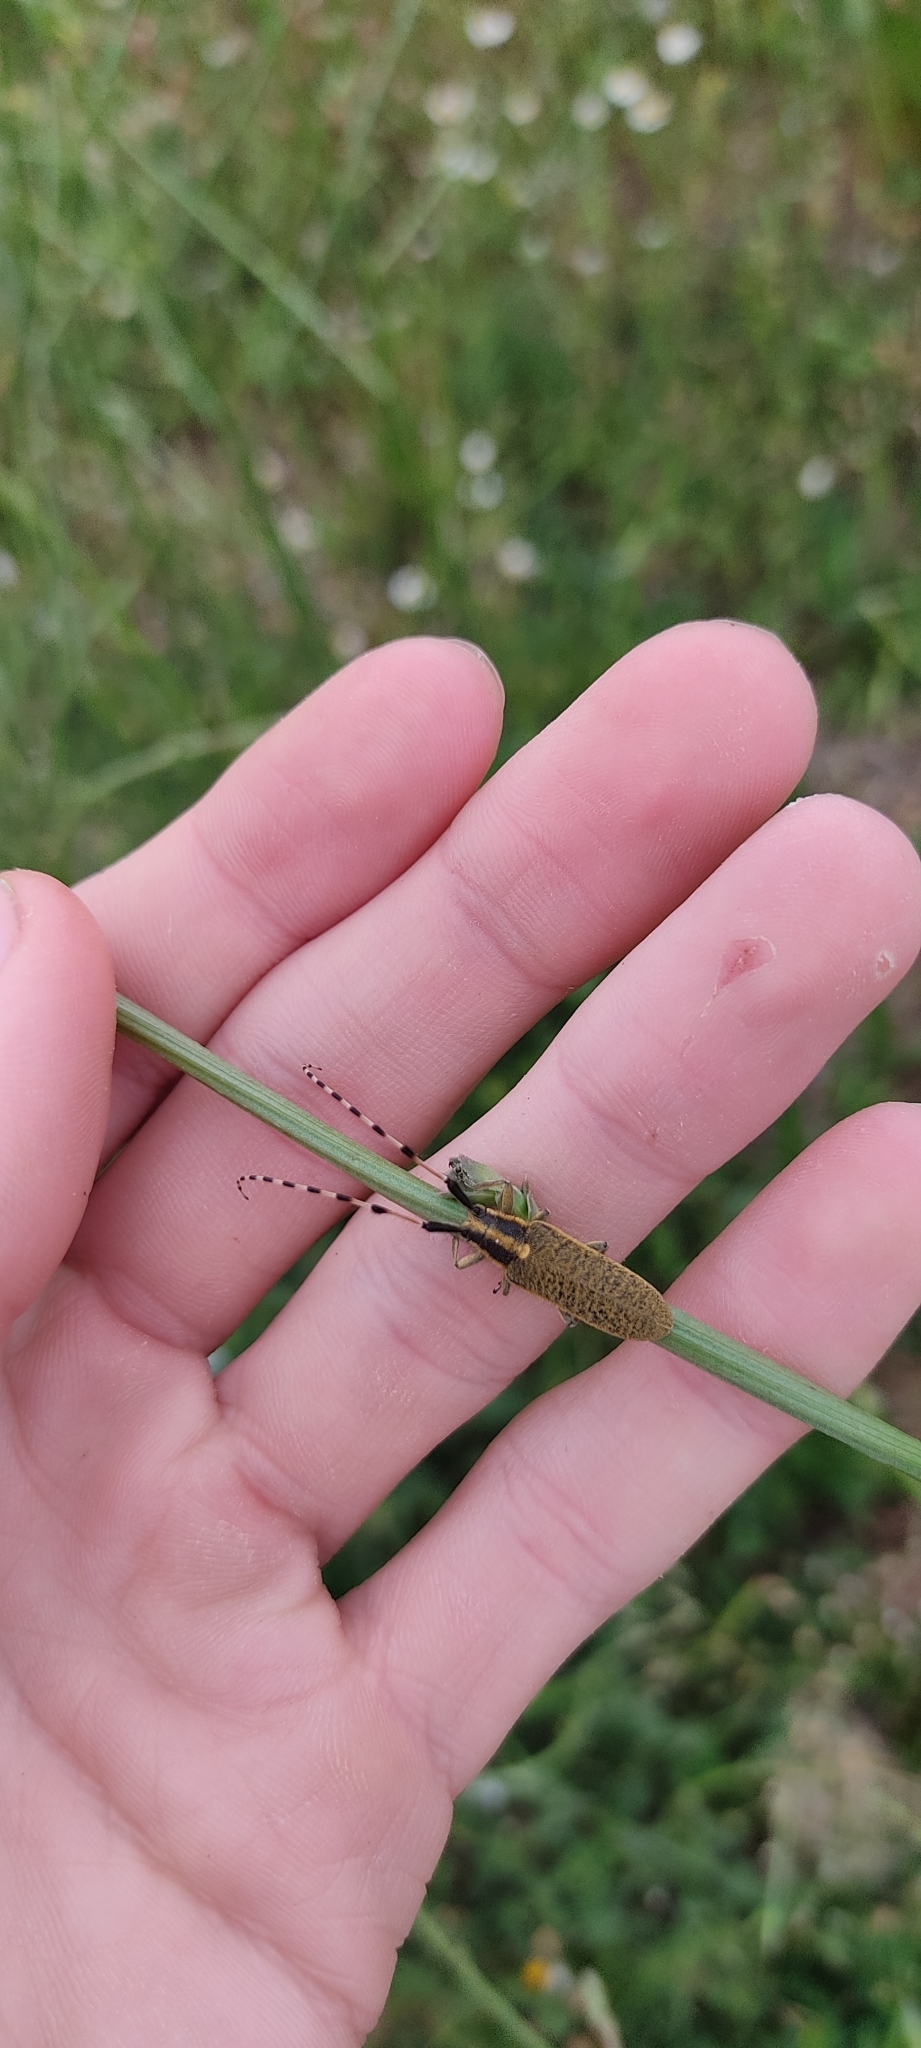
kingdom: Animalia
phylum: Arthropoda
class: Insecta
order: Coleoptera
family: Cerambycidae
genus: Agapanthia
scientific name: Agapanthia dahlii
